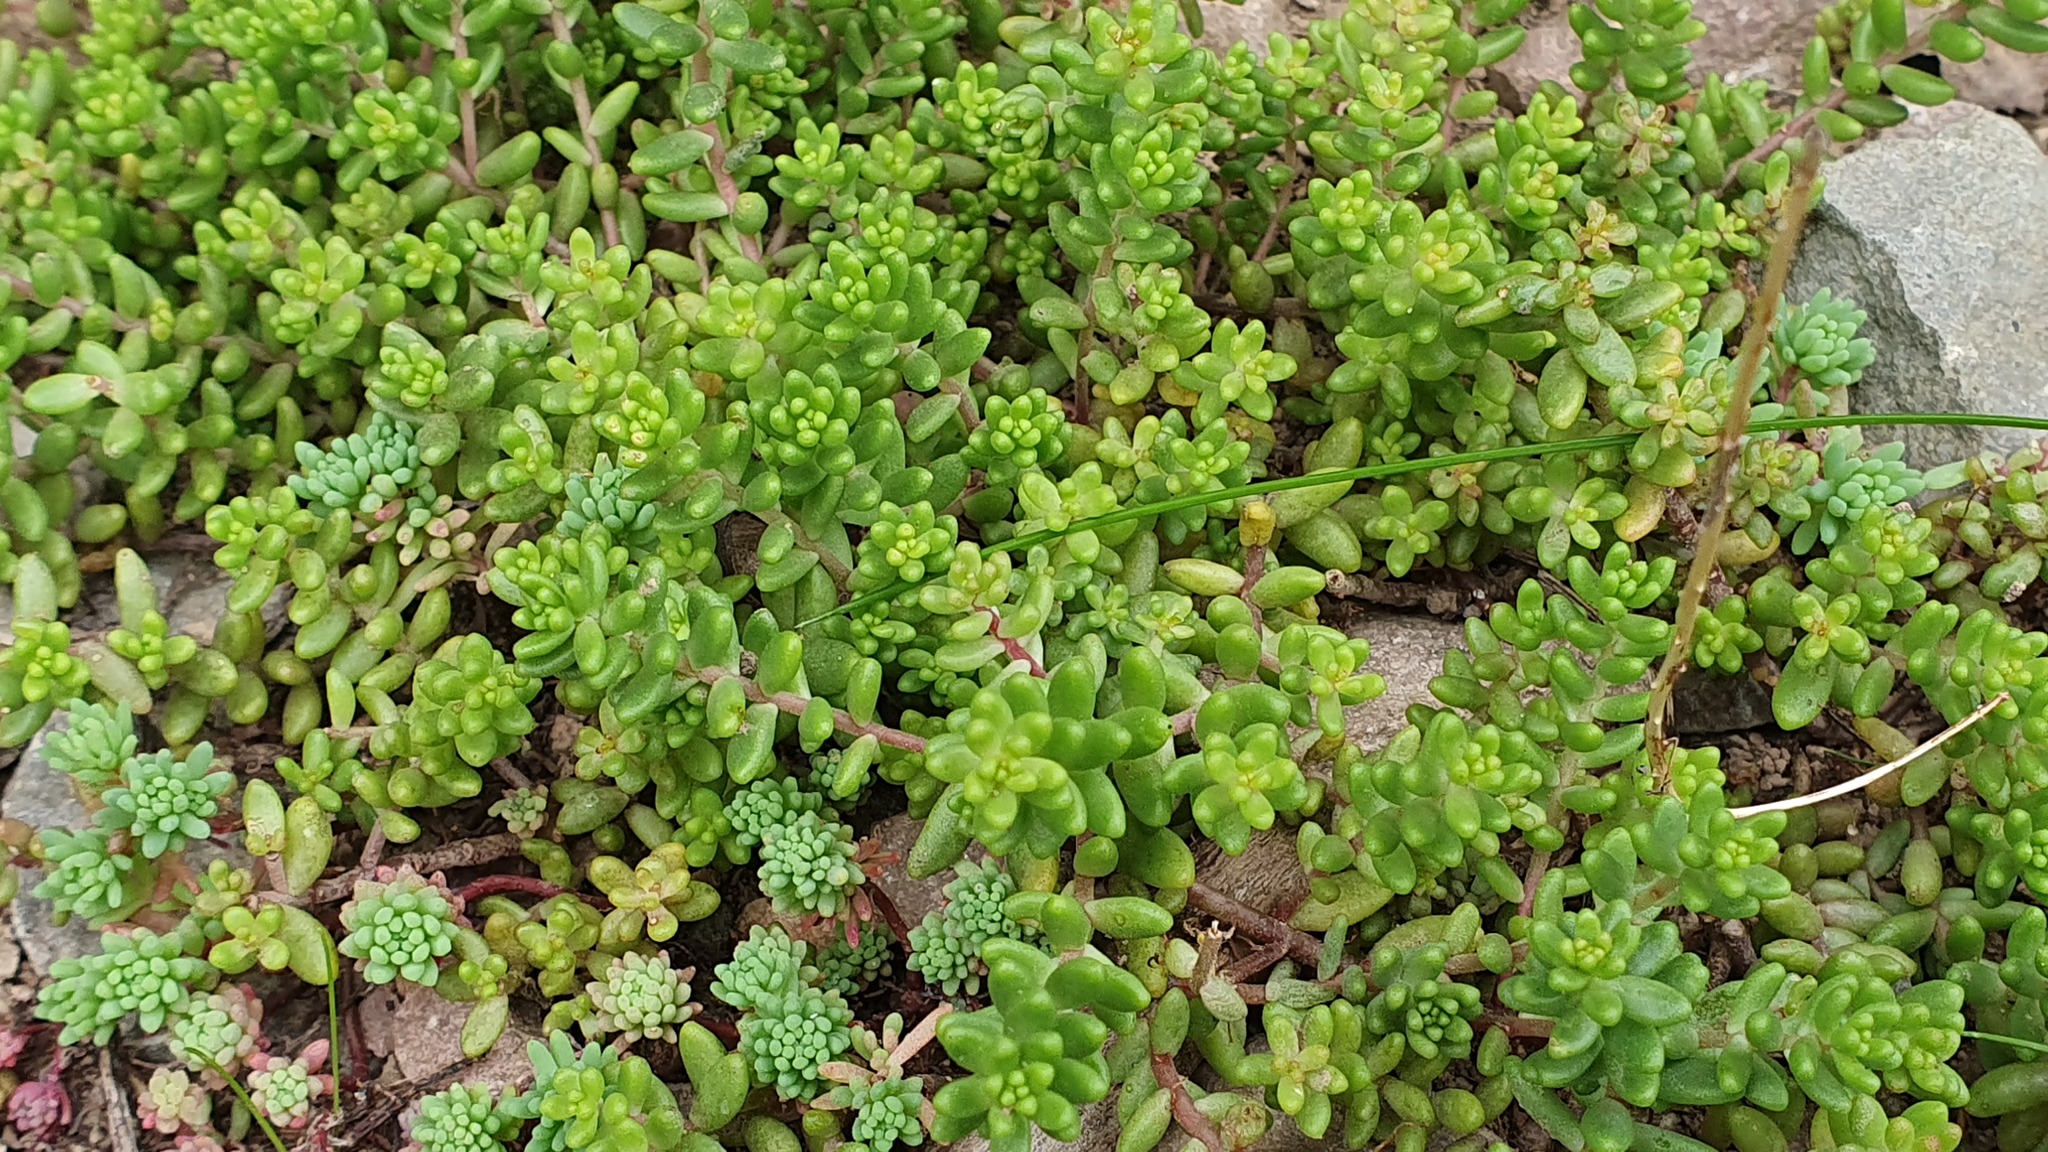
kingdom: Plantae
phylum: Tracheophyta
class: Magnoliopsida
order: Saxifragales
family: Crassulaceae
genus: Sedum
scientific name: Sedum album
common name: White stonecrop
